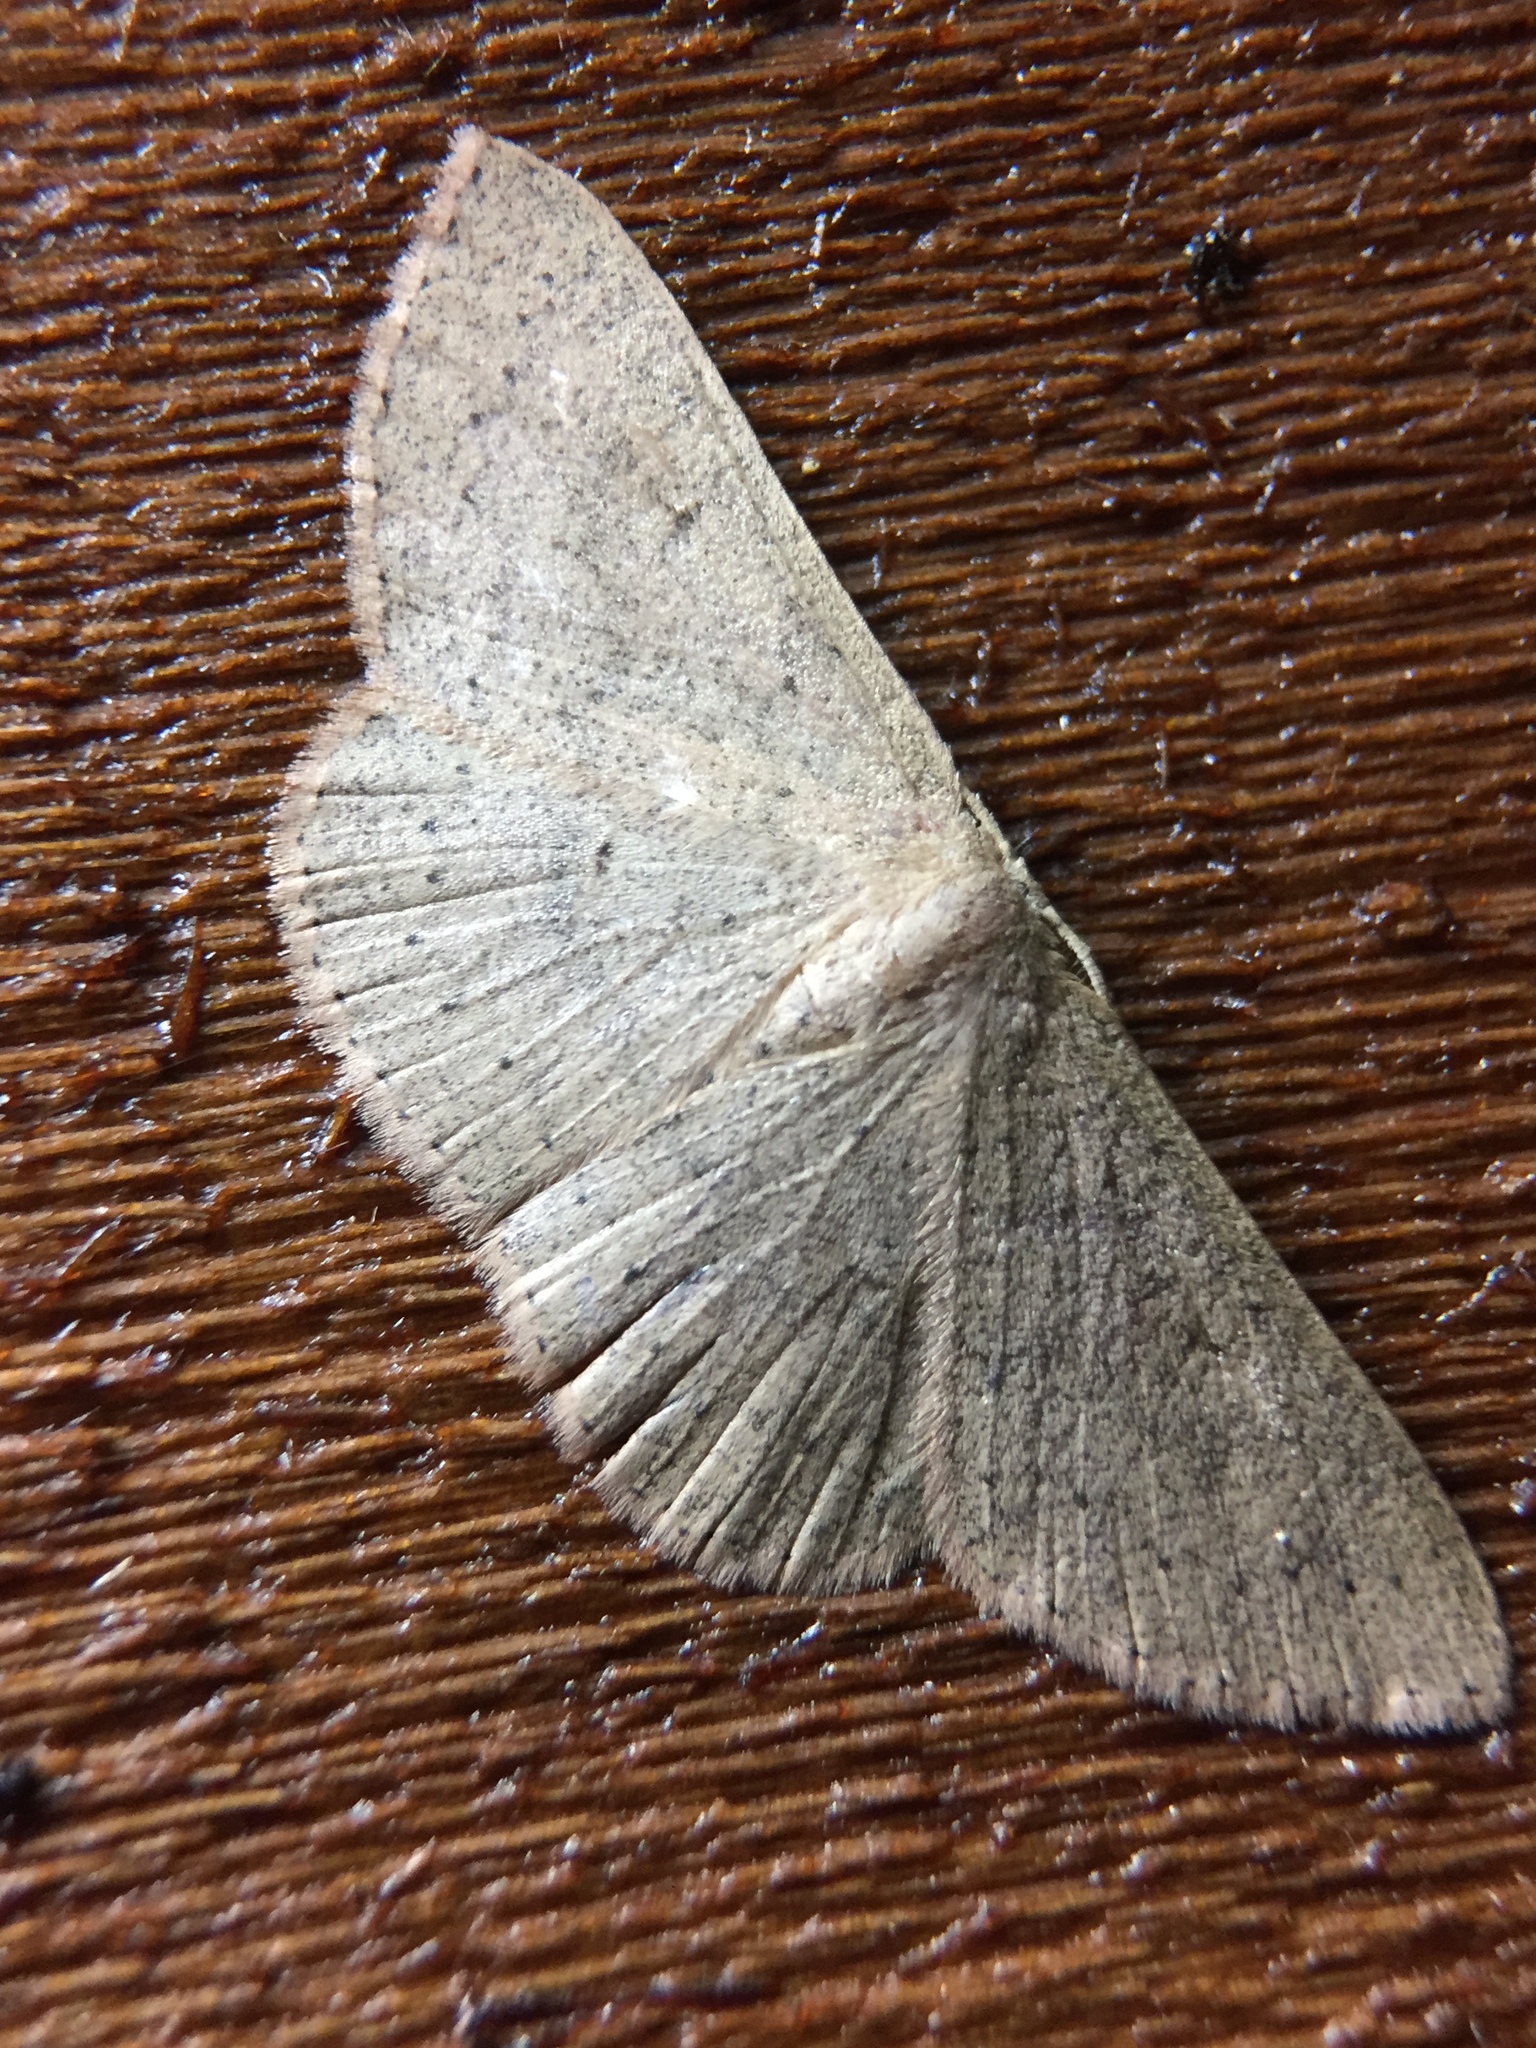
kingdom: Animalia
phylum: Arthropoda
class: Insecta
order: Lepidoptera
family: Geometridae
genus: Cyclophora
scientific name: Cyclophora obstataria
